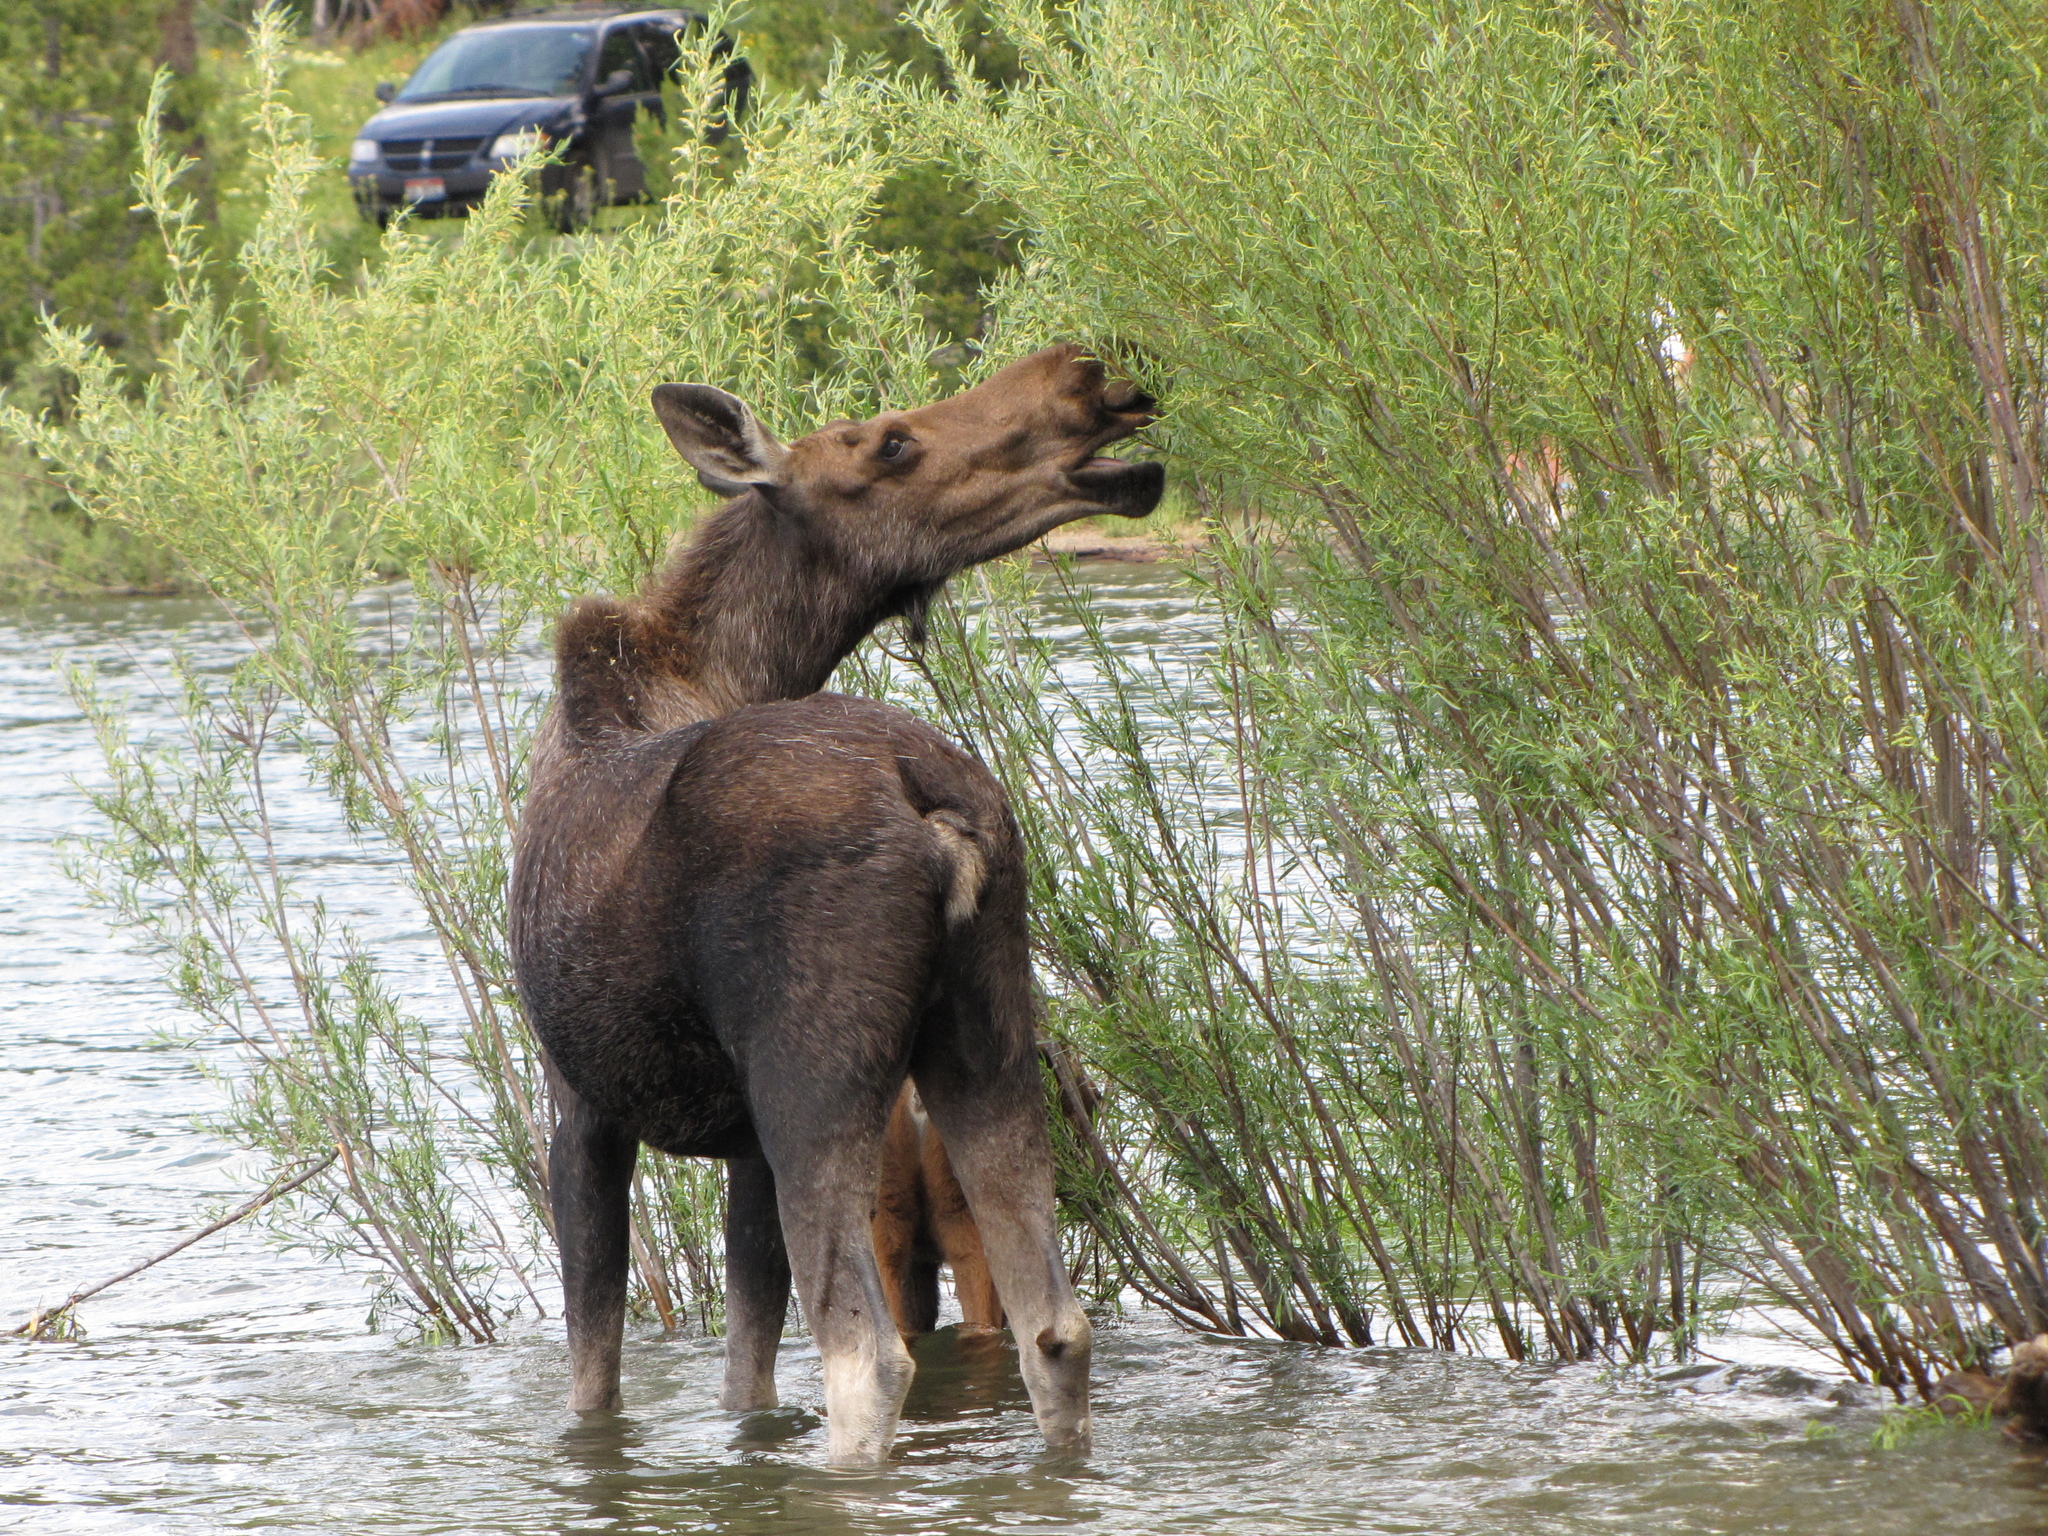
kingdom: Animalia
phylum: Chordata
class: Mammalia
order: Artiodactyla
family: Cervidae
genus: Alces
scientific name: Alces alces
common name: Moose
